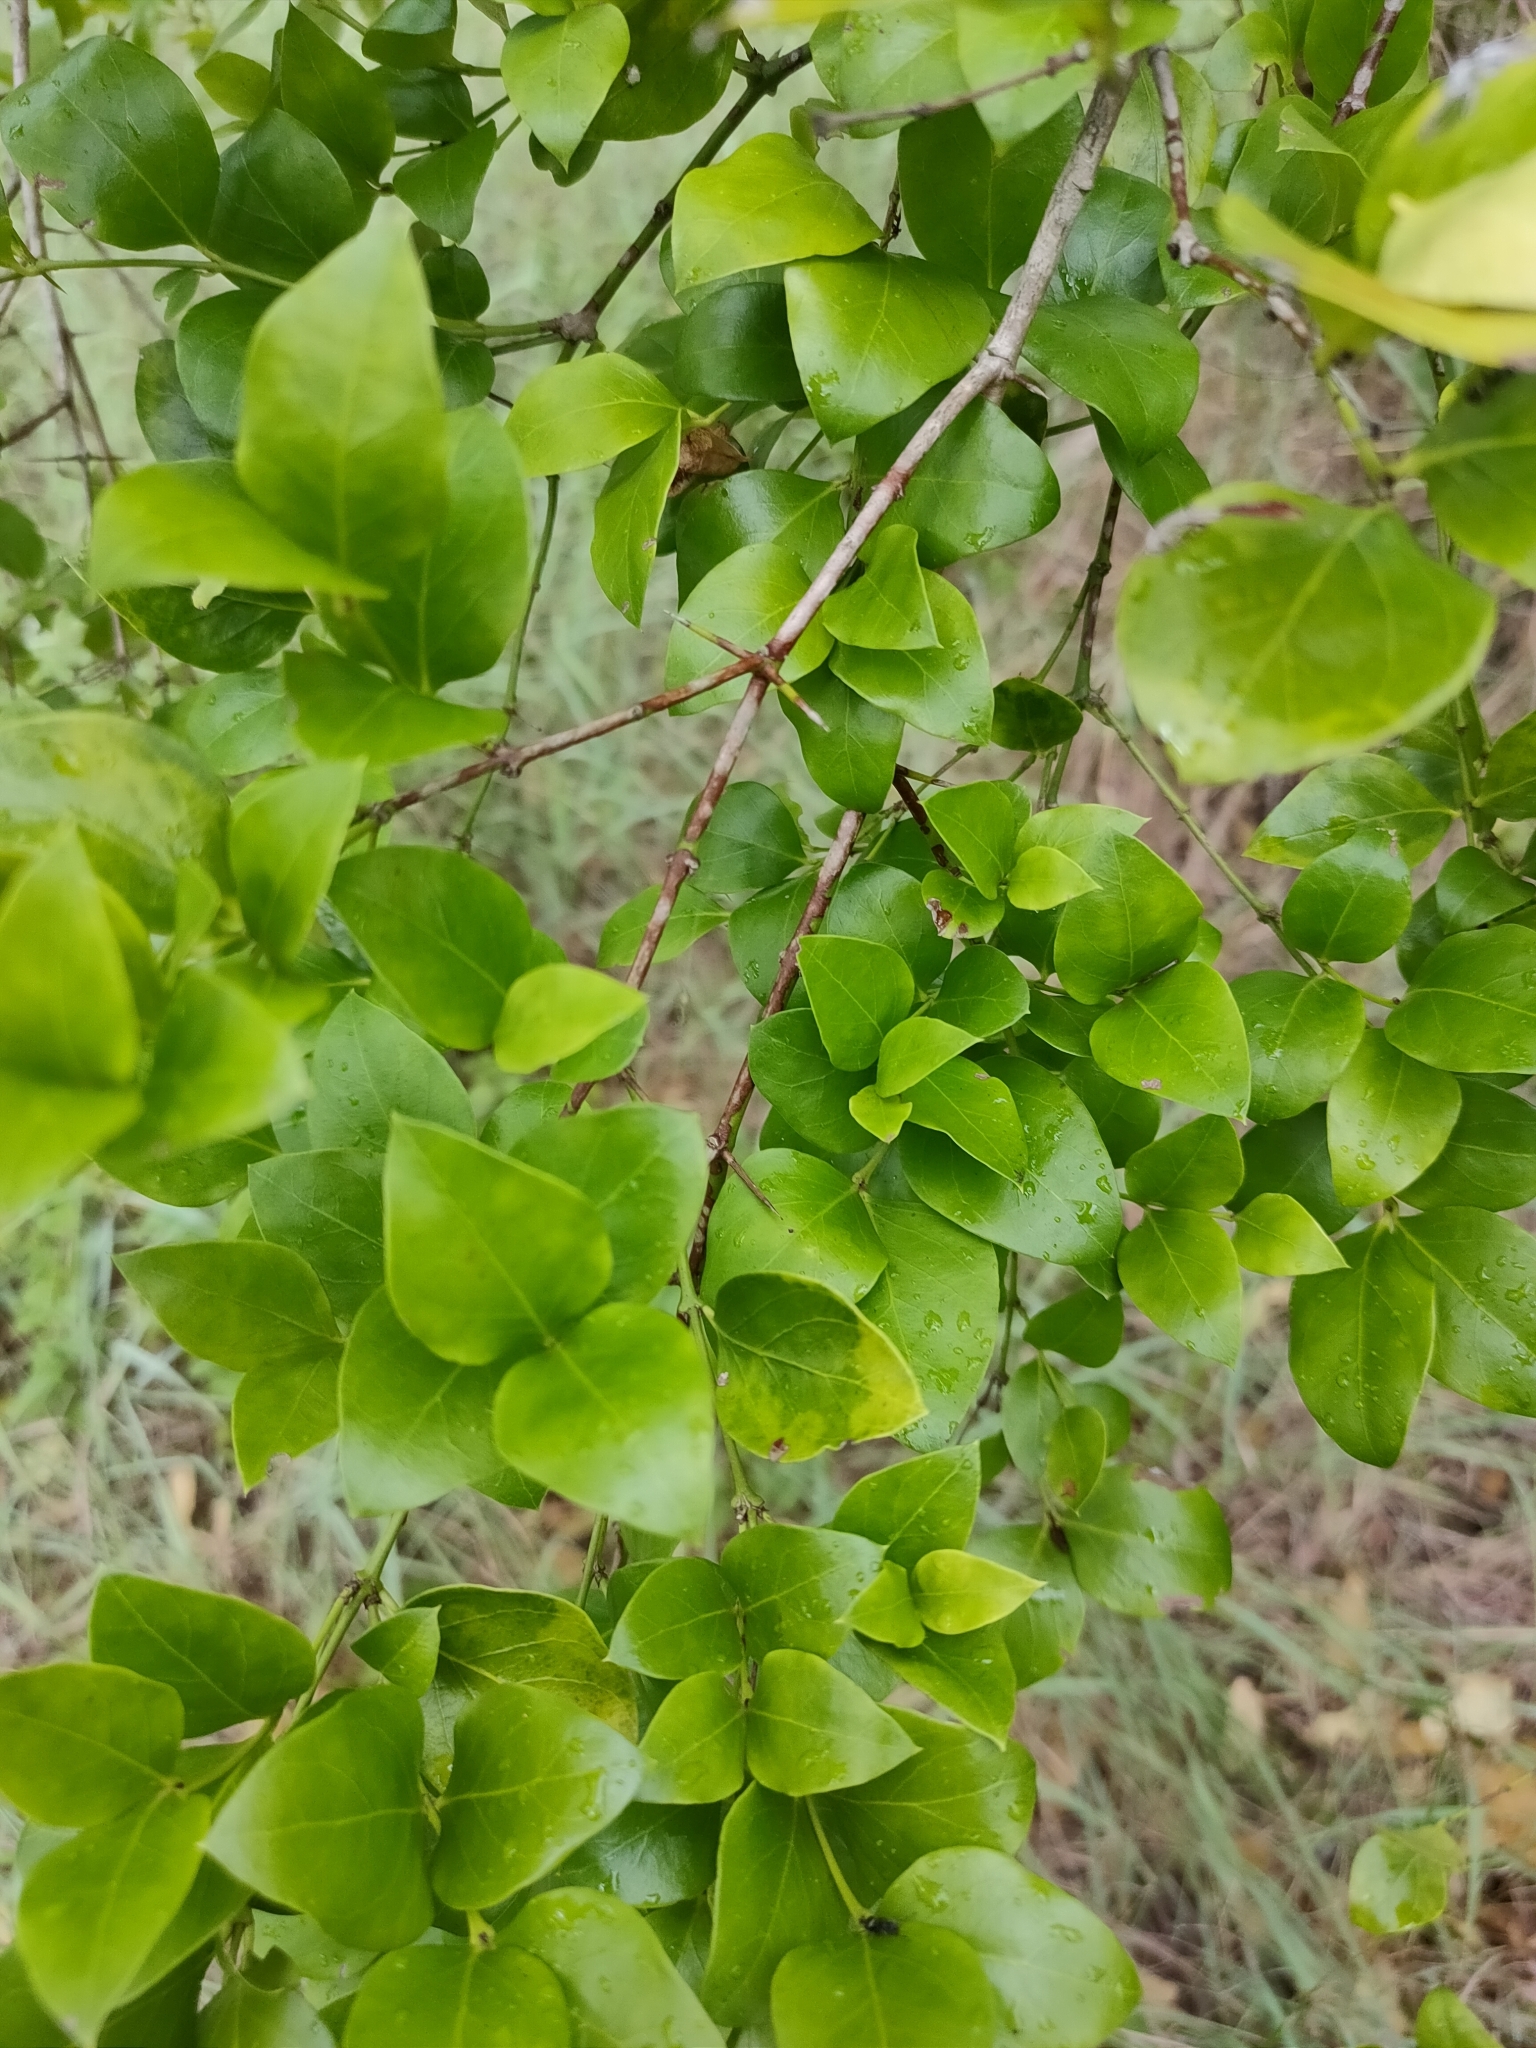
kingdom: Plantae
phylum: Tracheophyta
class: Magnoliopsida
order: Gentianales
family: Apocynaceae
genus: Carissa
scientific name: Carissa ovata
